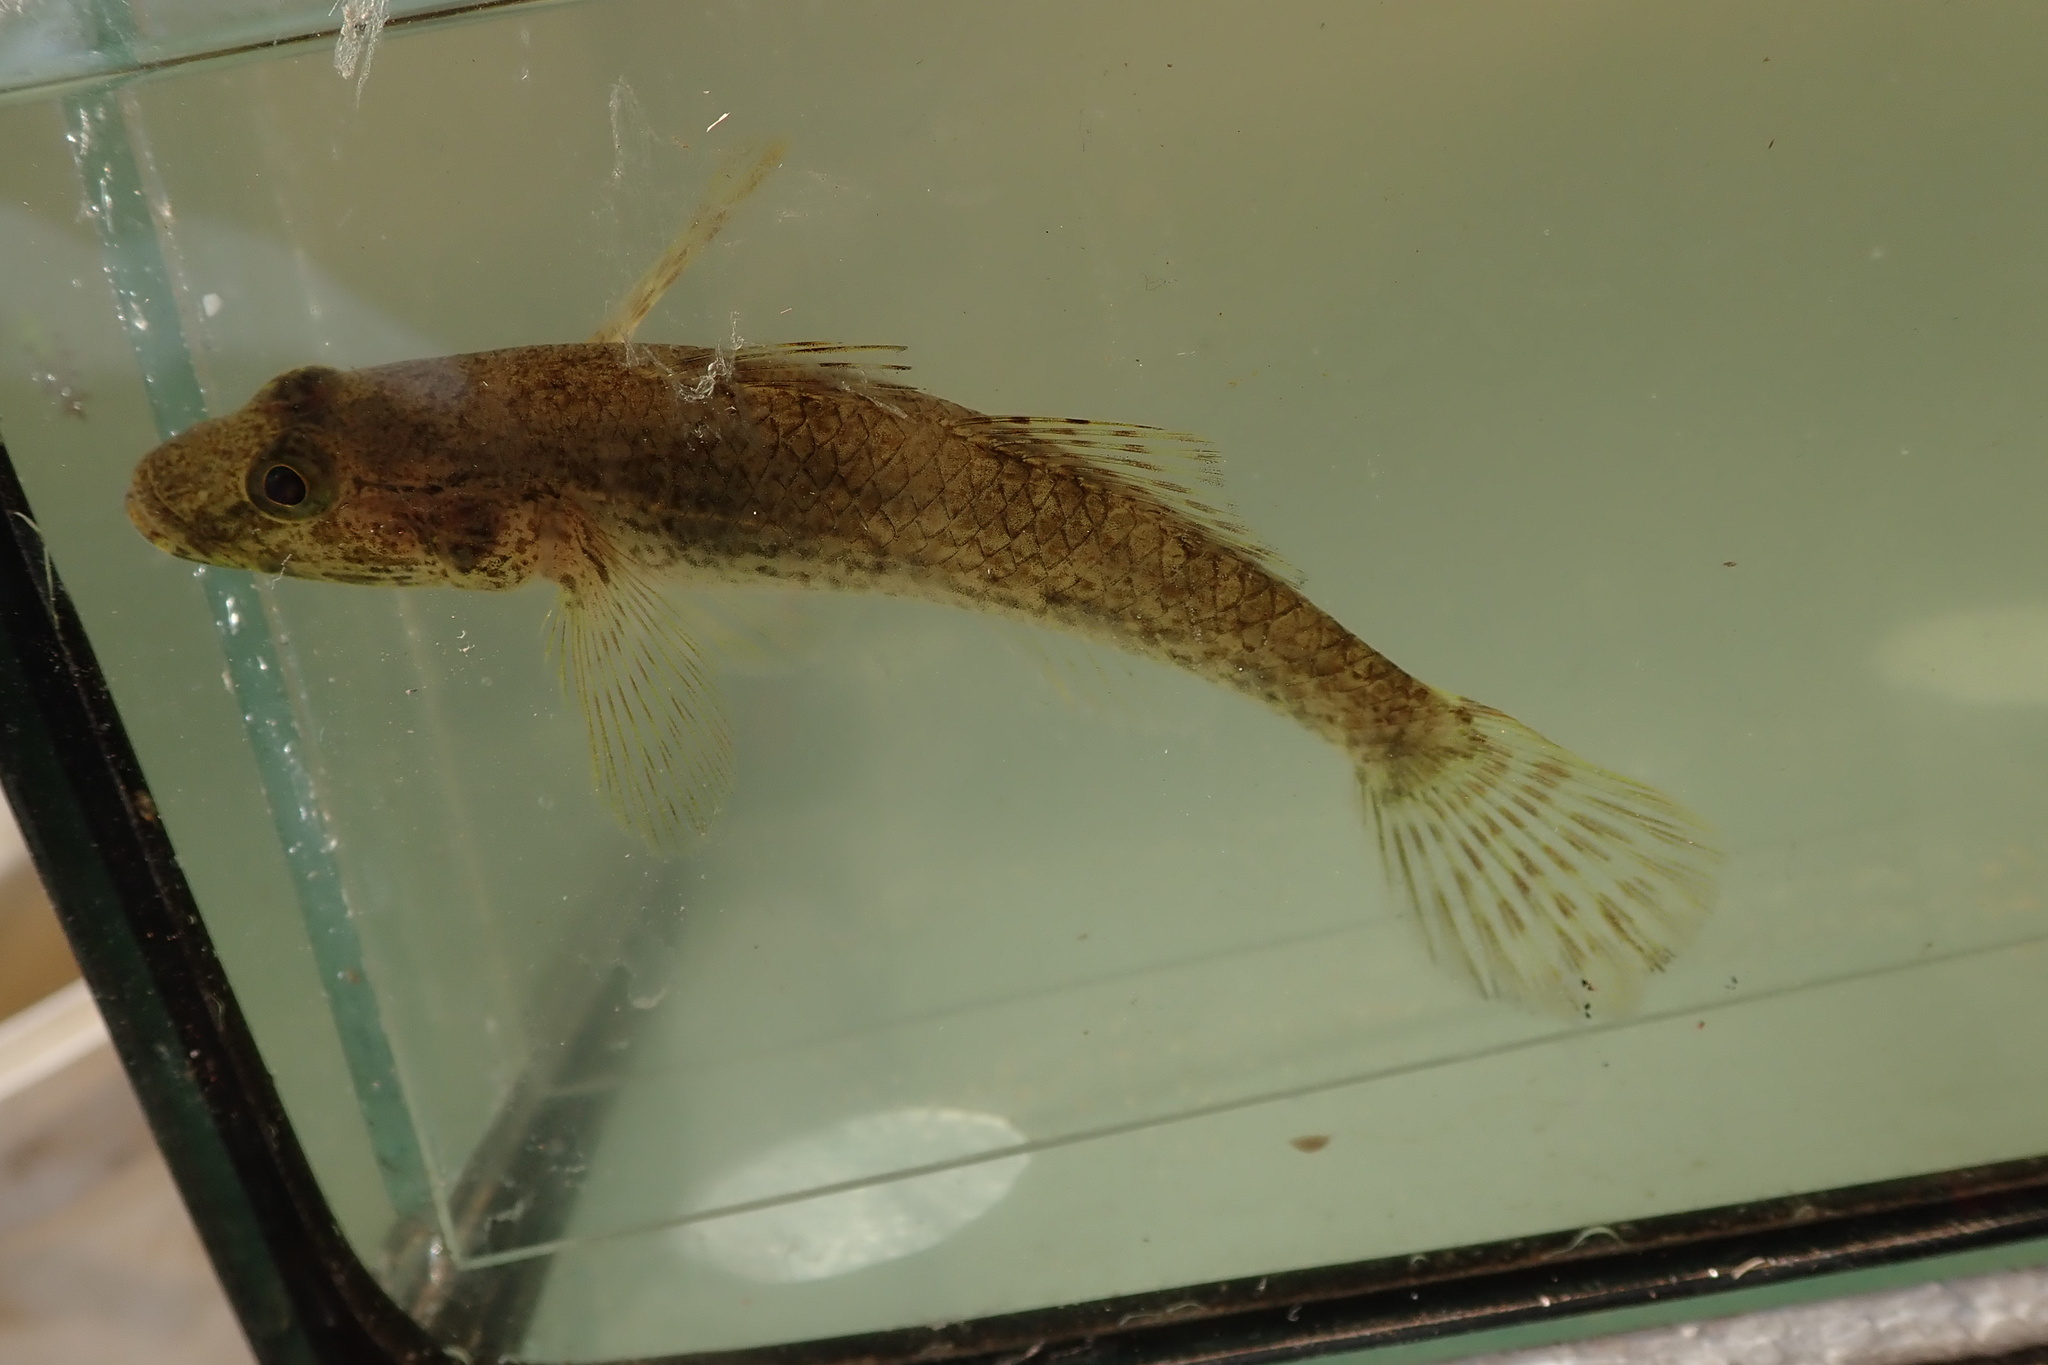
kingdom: Animalia
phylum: Chordata
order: Perciformes
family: Gobiidae
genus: Glossogobius
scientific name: Glossogobius giuris
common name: Tank goby
